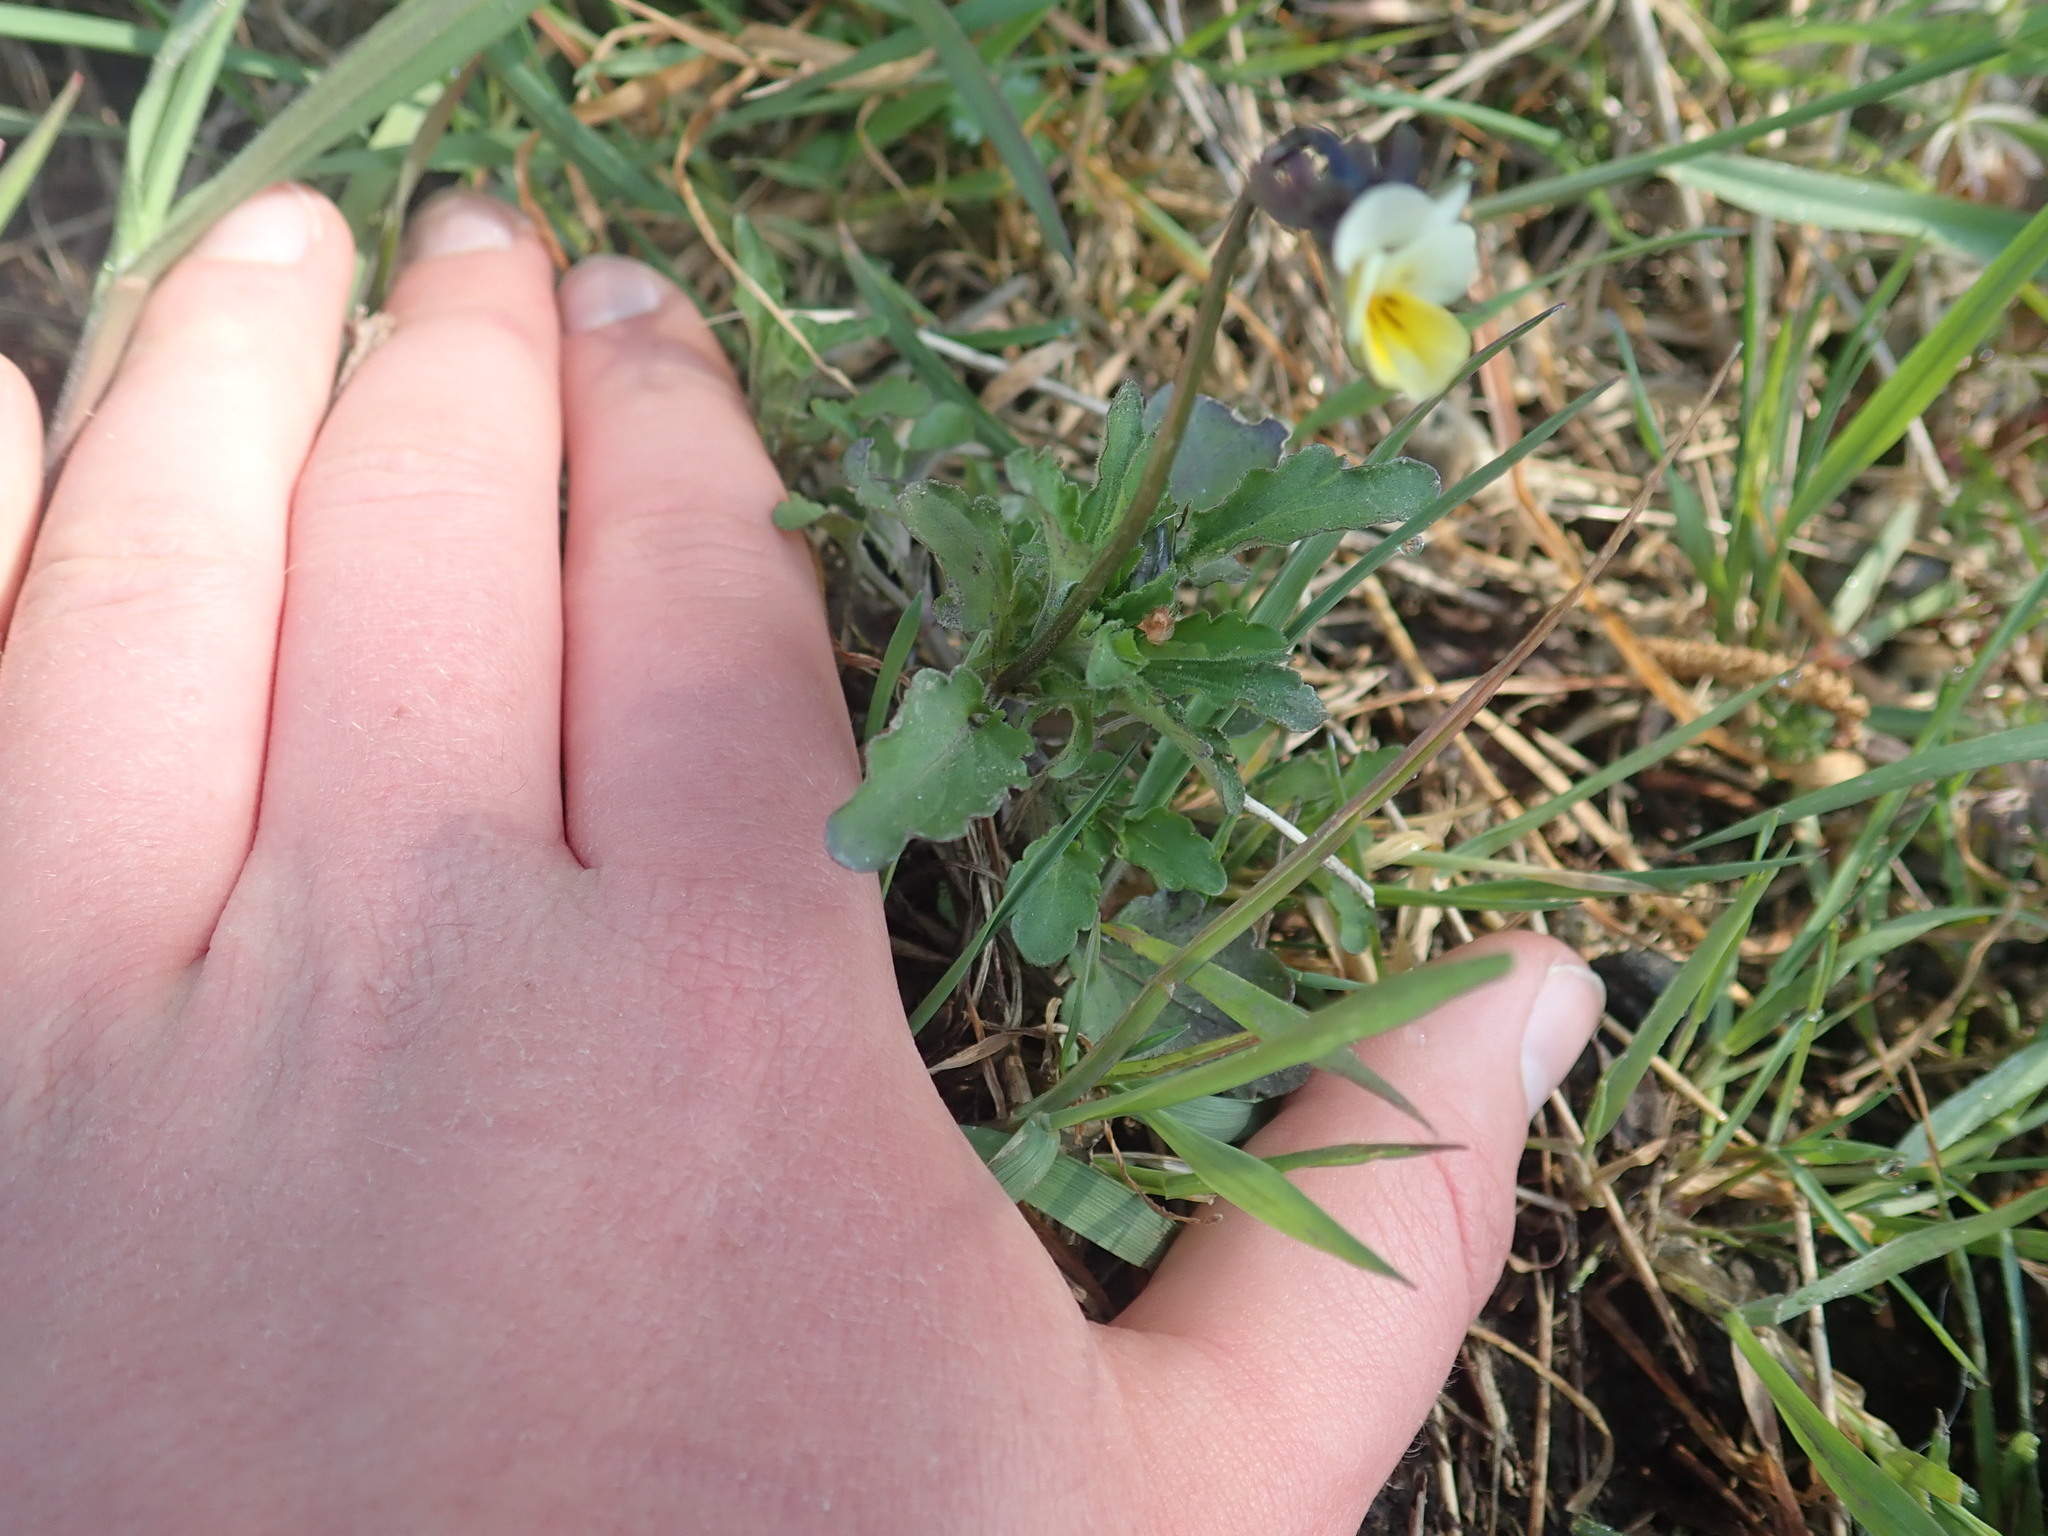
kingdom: Plantae
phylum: Tracheophyta
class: Magnoliopsida
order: Malpighiales
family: Violaceae
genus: Viola
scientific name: Viola arvensis
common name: Field pansy
